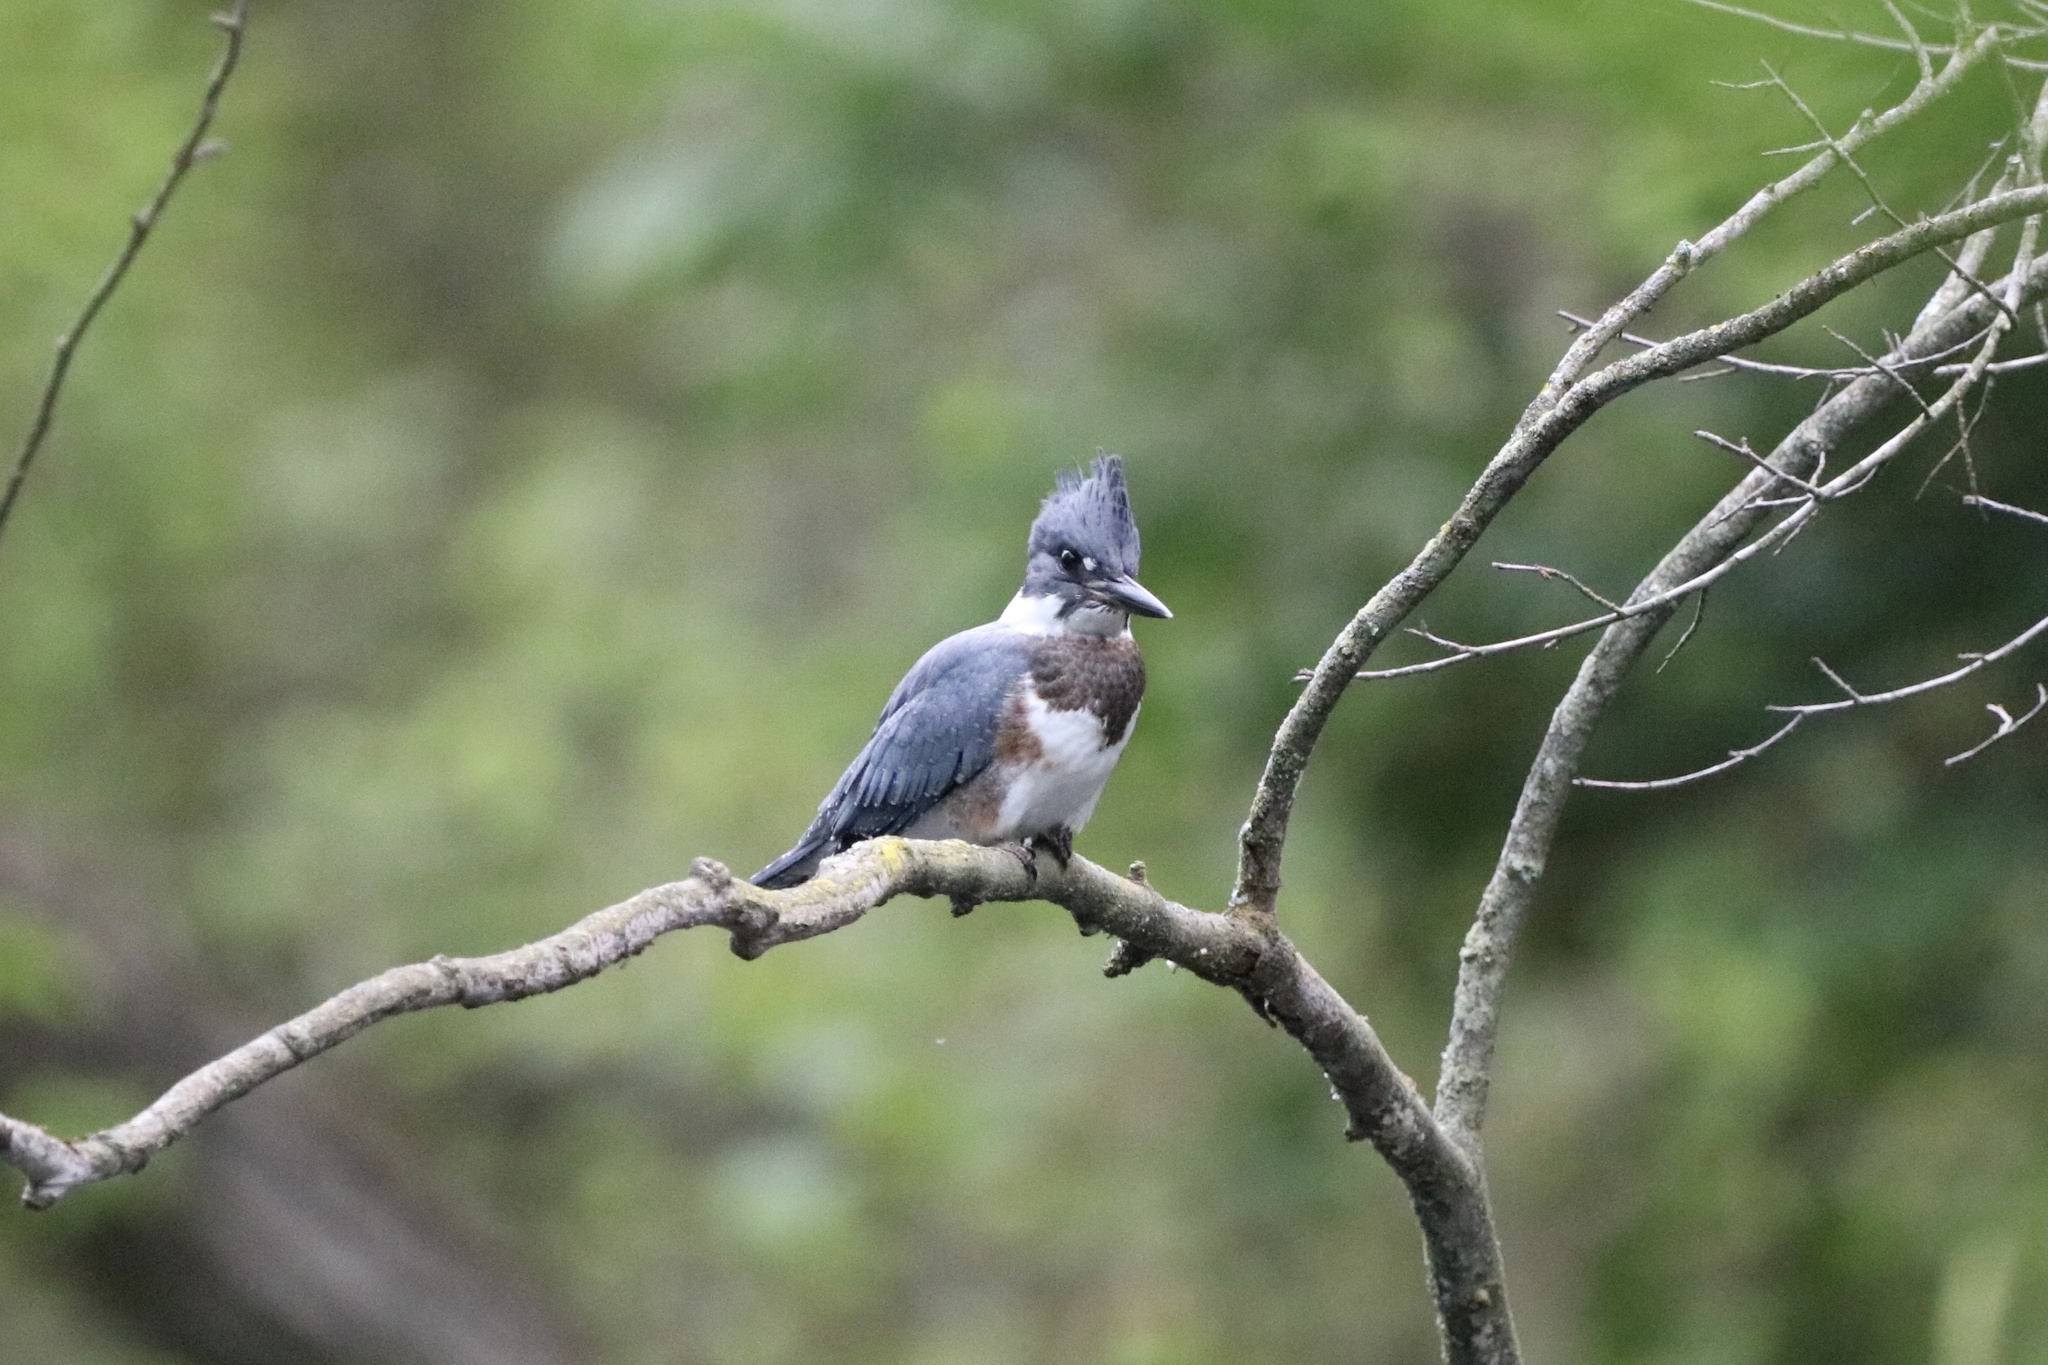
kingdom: Animalia
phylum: Chordata
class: Aves
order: Coraciiformes
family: Alcedinidae
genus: Megaceryle
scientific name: Megaceryle alcyon
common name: Belted kingfisher
